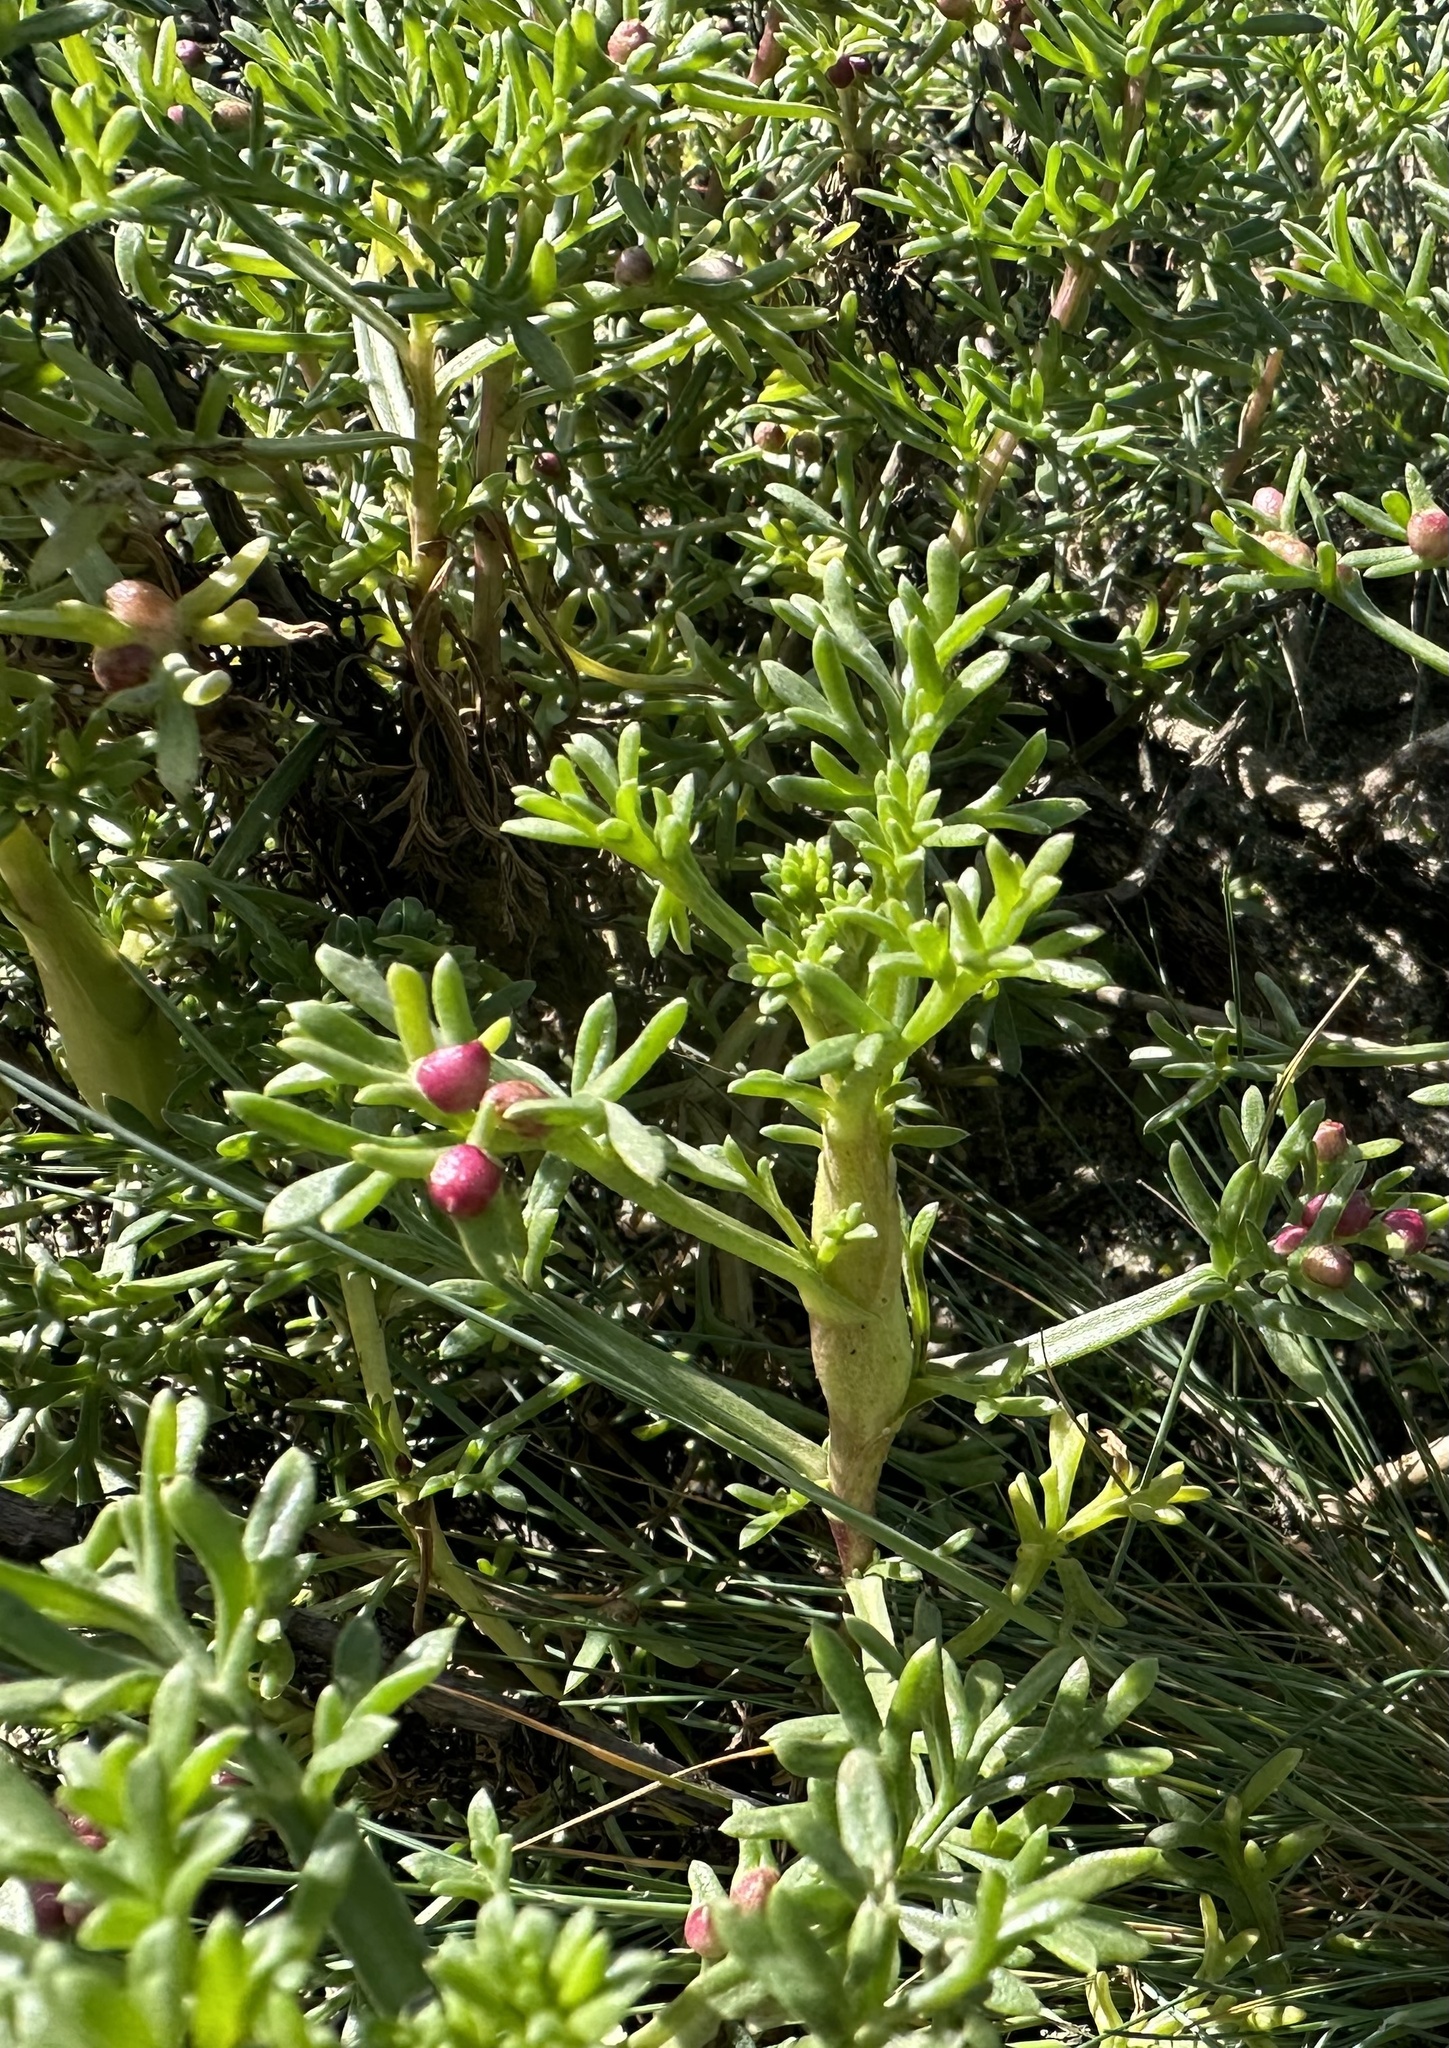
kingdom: Animalia
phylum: Arthropoda
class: Insecta
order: Lepidoptera
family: Tortricidae
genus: Cochylimorpha
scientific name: Cochylimorpha hilarana
